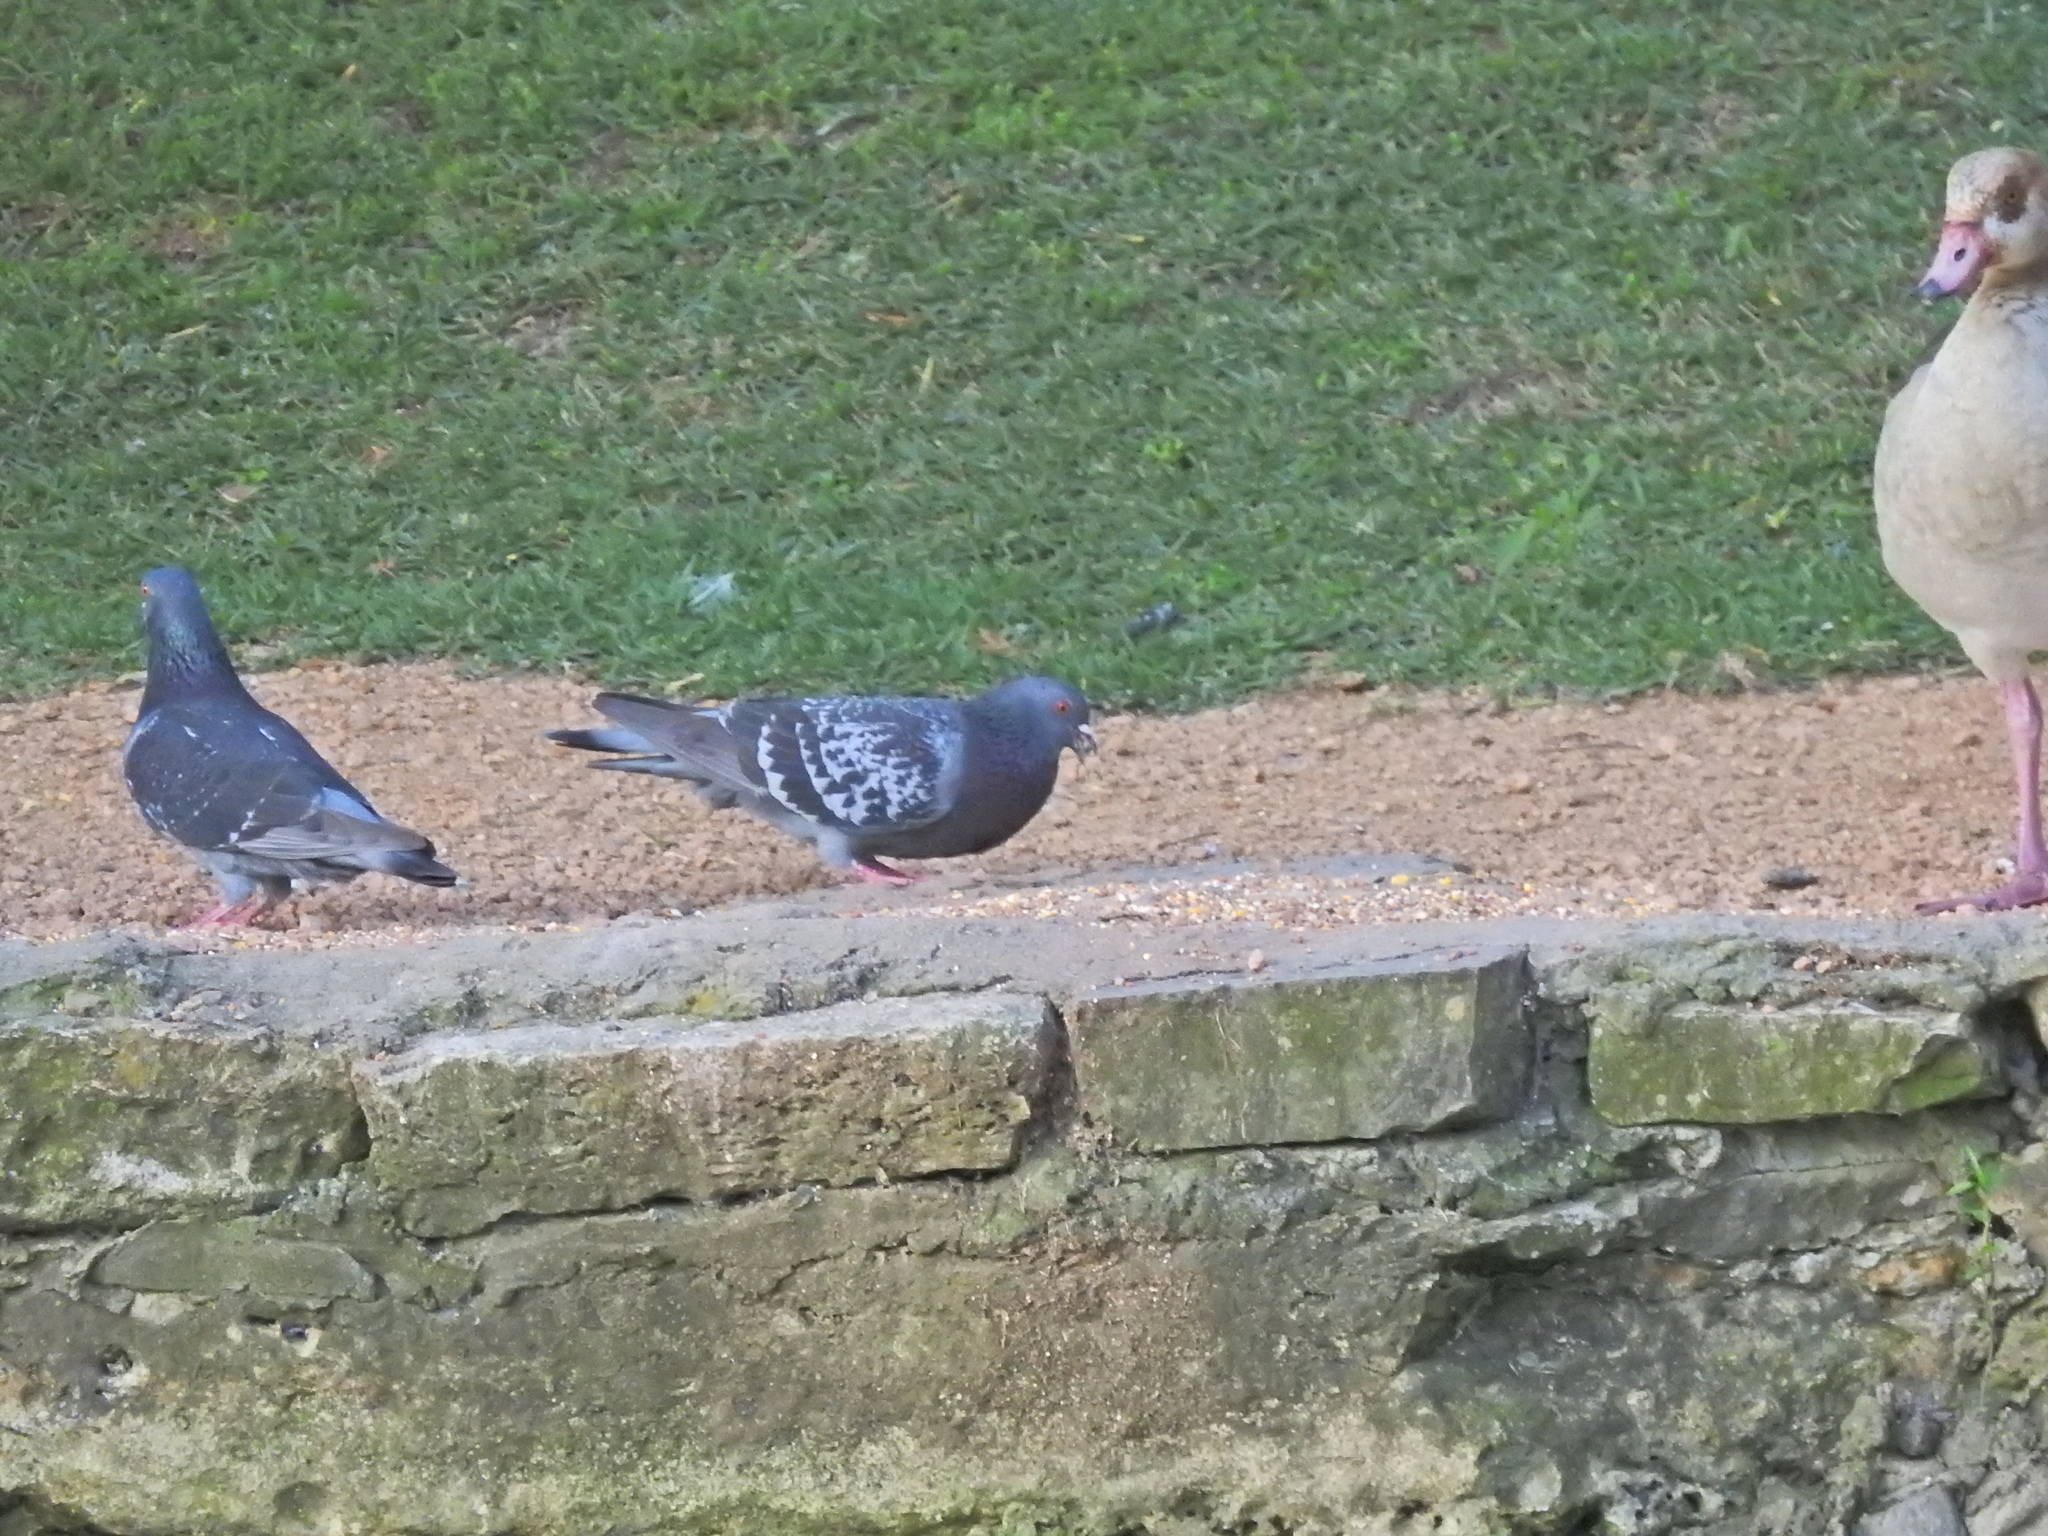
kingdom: Animalia
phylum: Chordata
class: Aves
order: Columbiformes
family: Columbidae
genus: Columba
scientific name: Columba livia
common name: Rock pigeon
